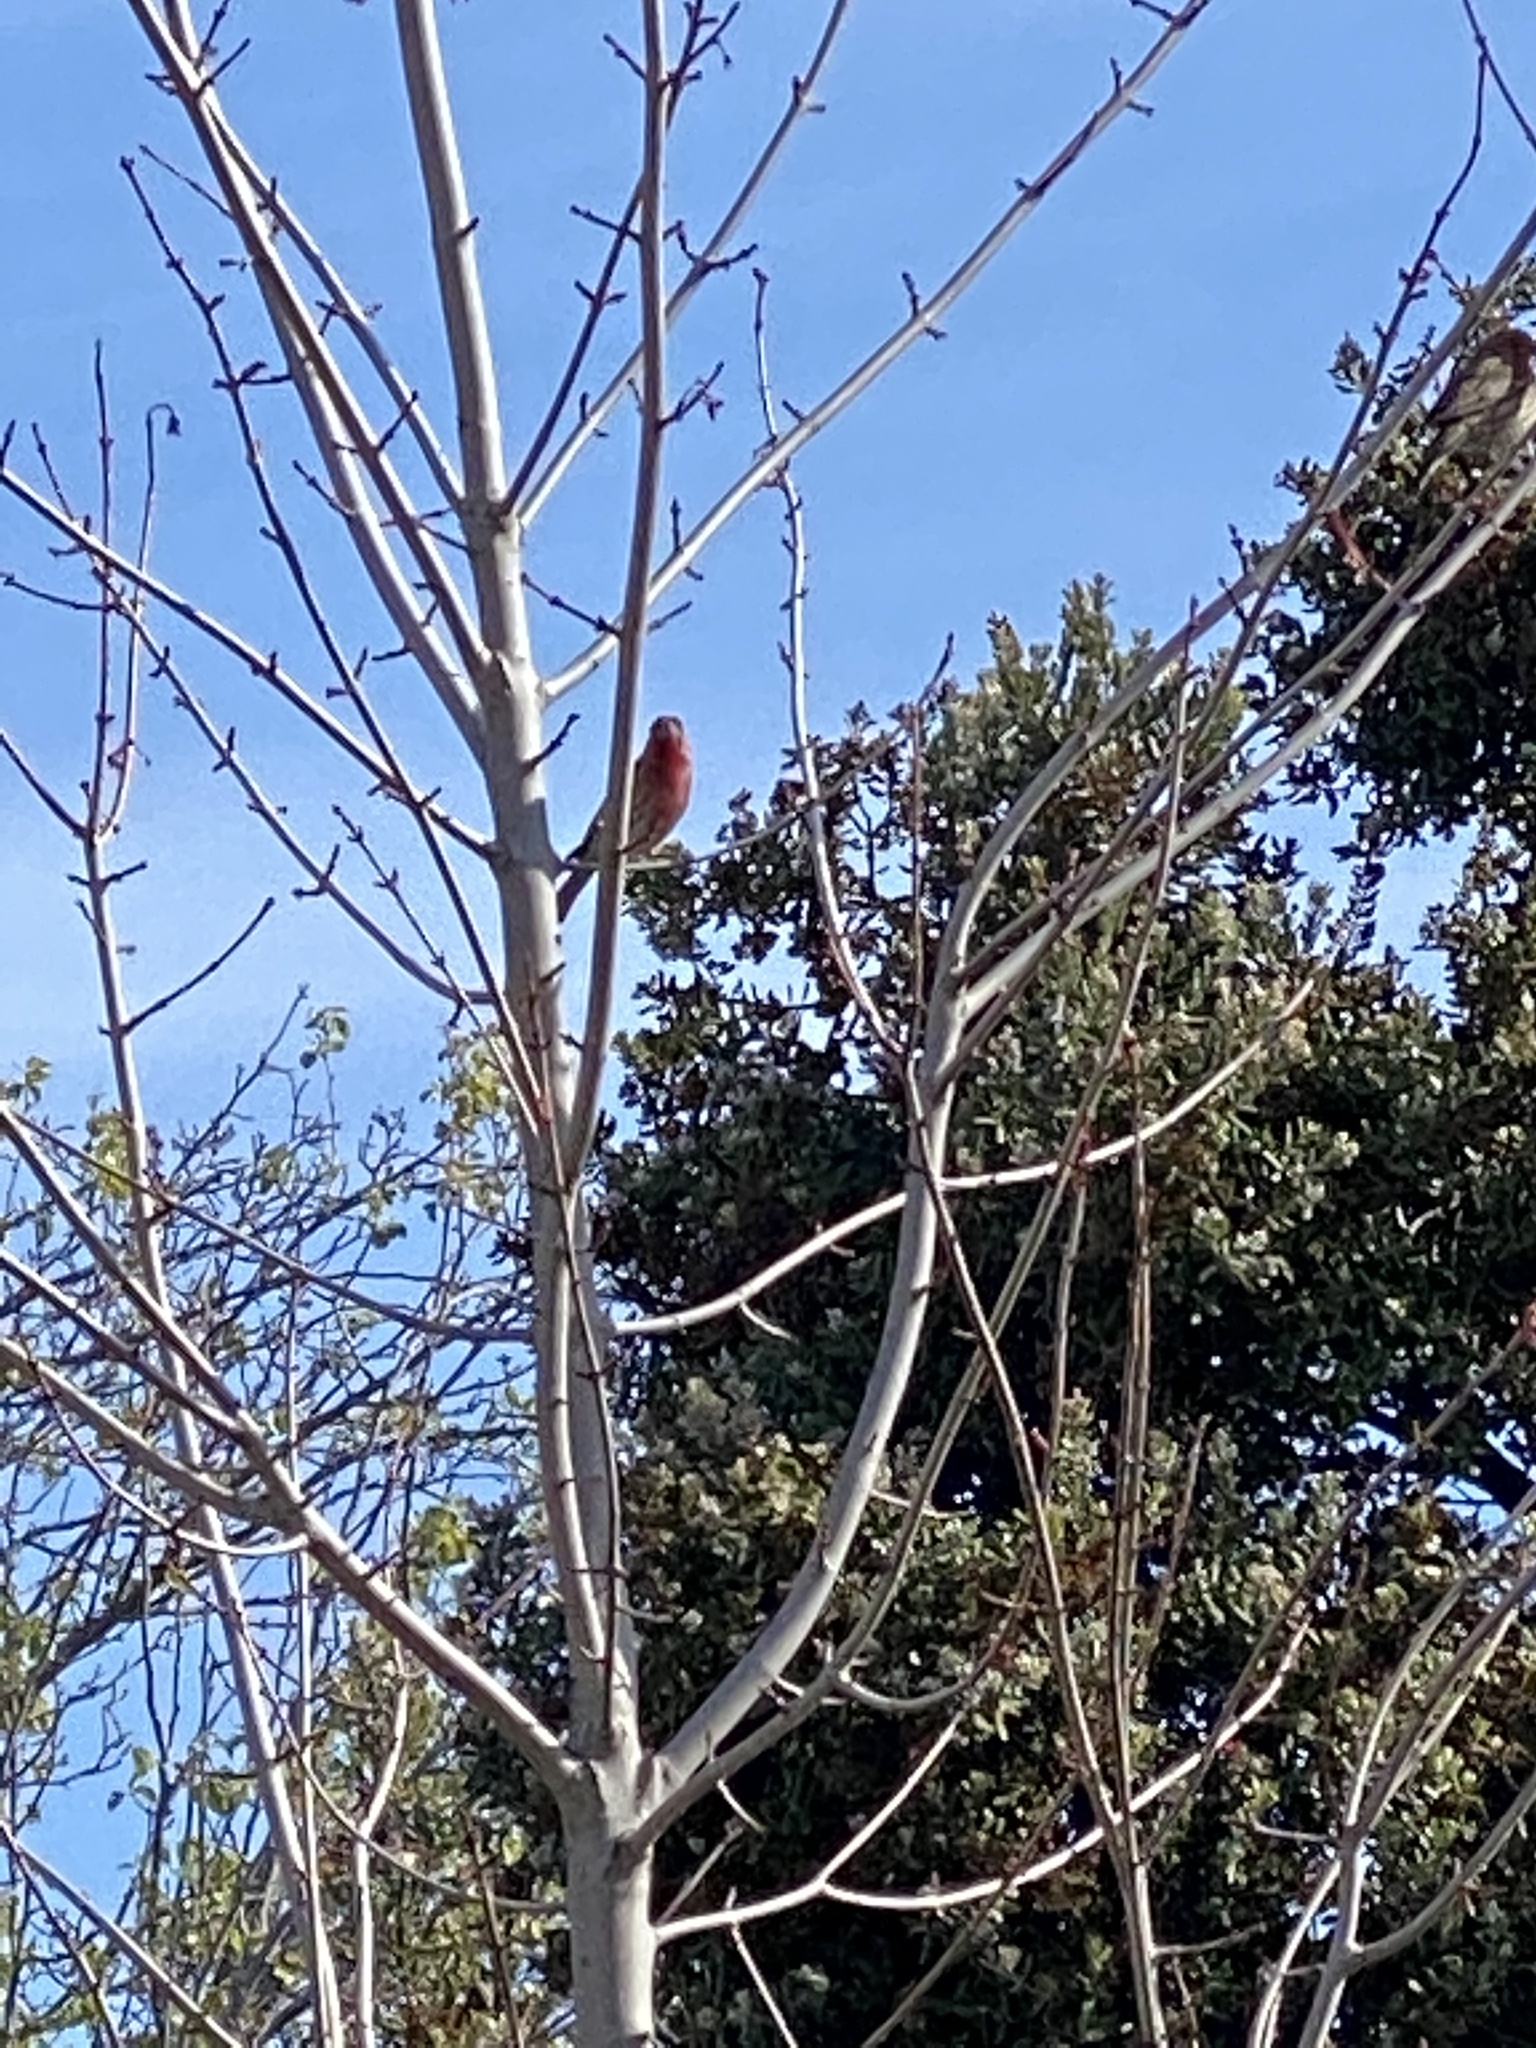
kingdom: Animalia
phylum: Chordata
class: Aves
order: Passeriformes
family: Fringillidae
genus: Haemorhous
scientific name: Haemorhous mexicanus
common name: House finch
